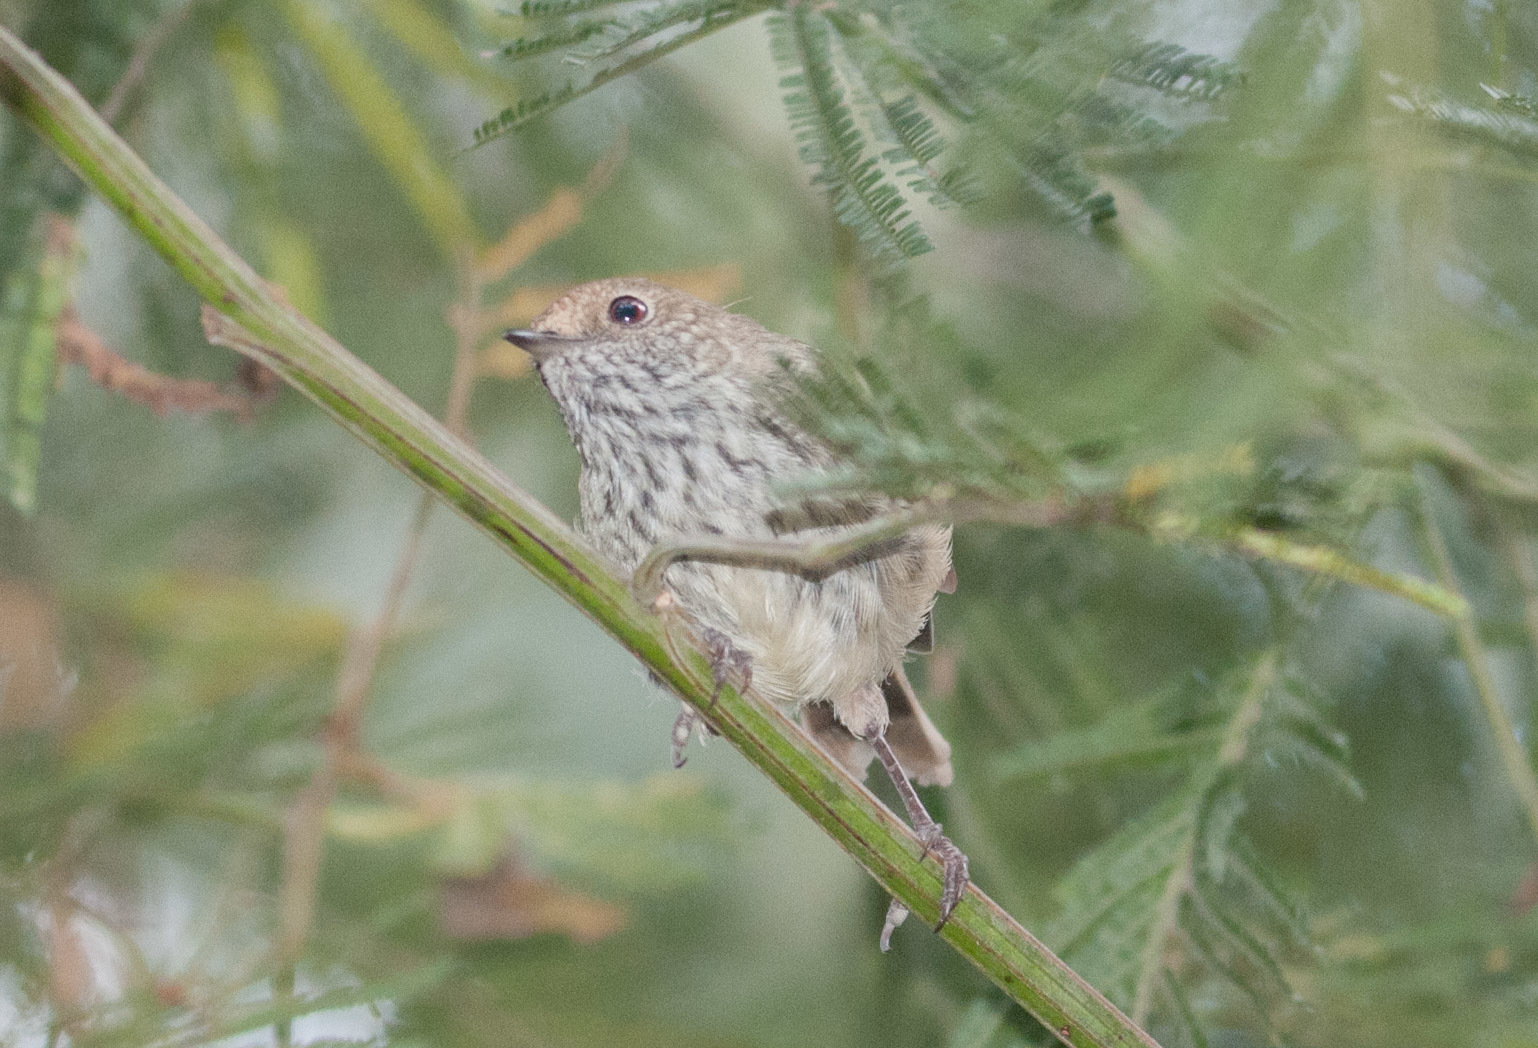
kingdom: Animalia
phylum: Chordata
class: Aves
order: Passeriformes
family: Acanthizidae
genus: Acanthiza
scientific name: Acanthiza pusilla
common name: Brown thornbill
